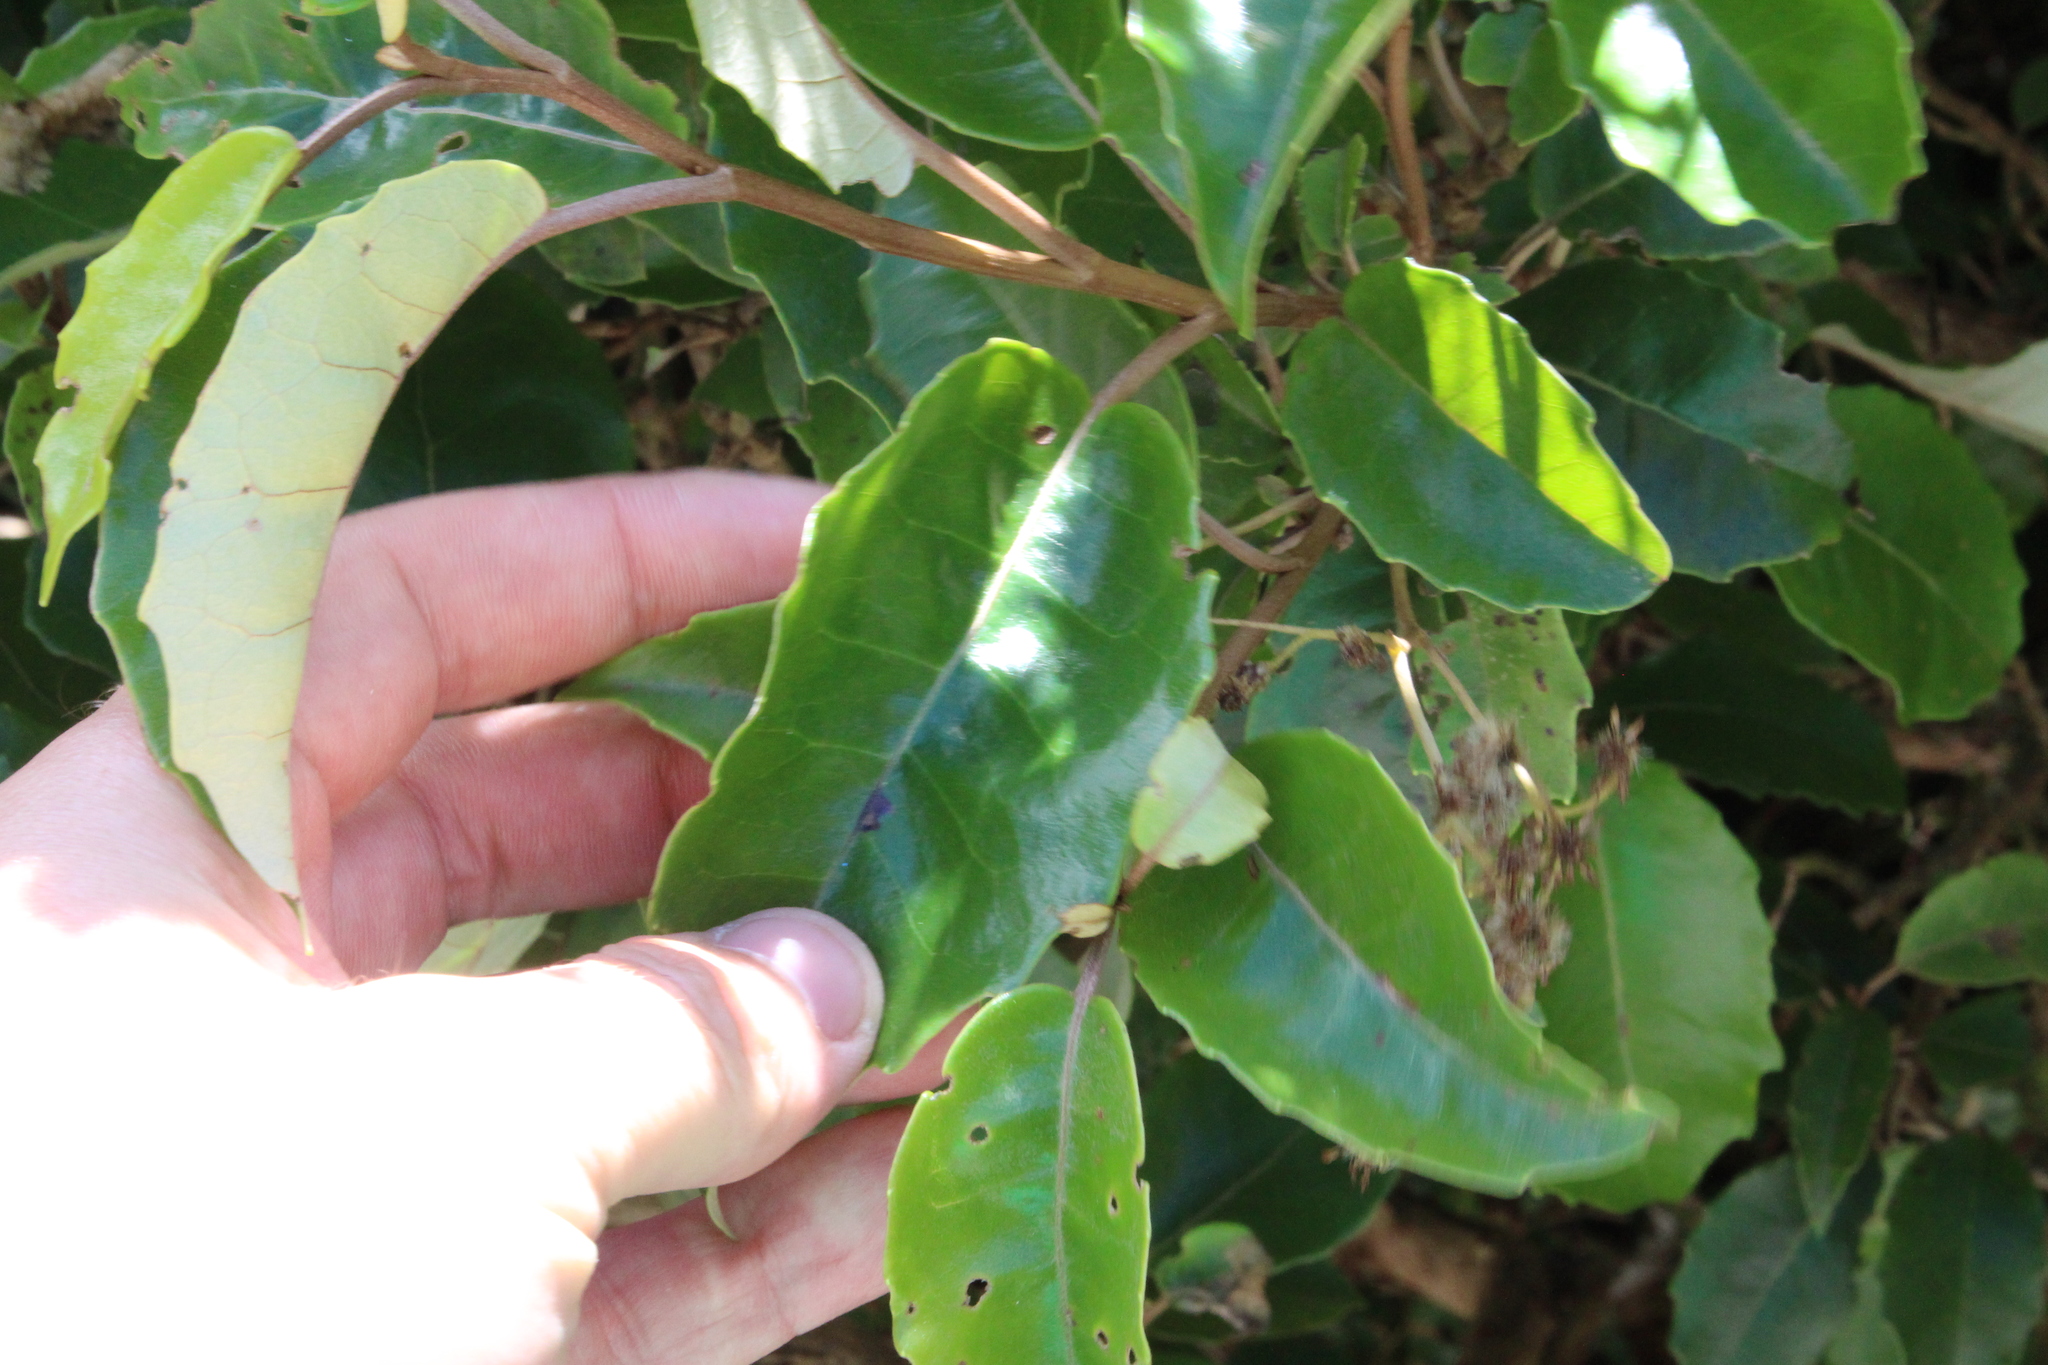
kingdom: Plantae
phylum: Tracheophyta
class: Magnoliopsida
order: Asterales
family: Asteraceae
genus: Olearia
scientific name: Olearia arborescens
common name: Glossy tree daisy
